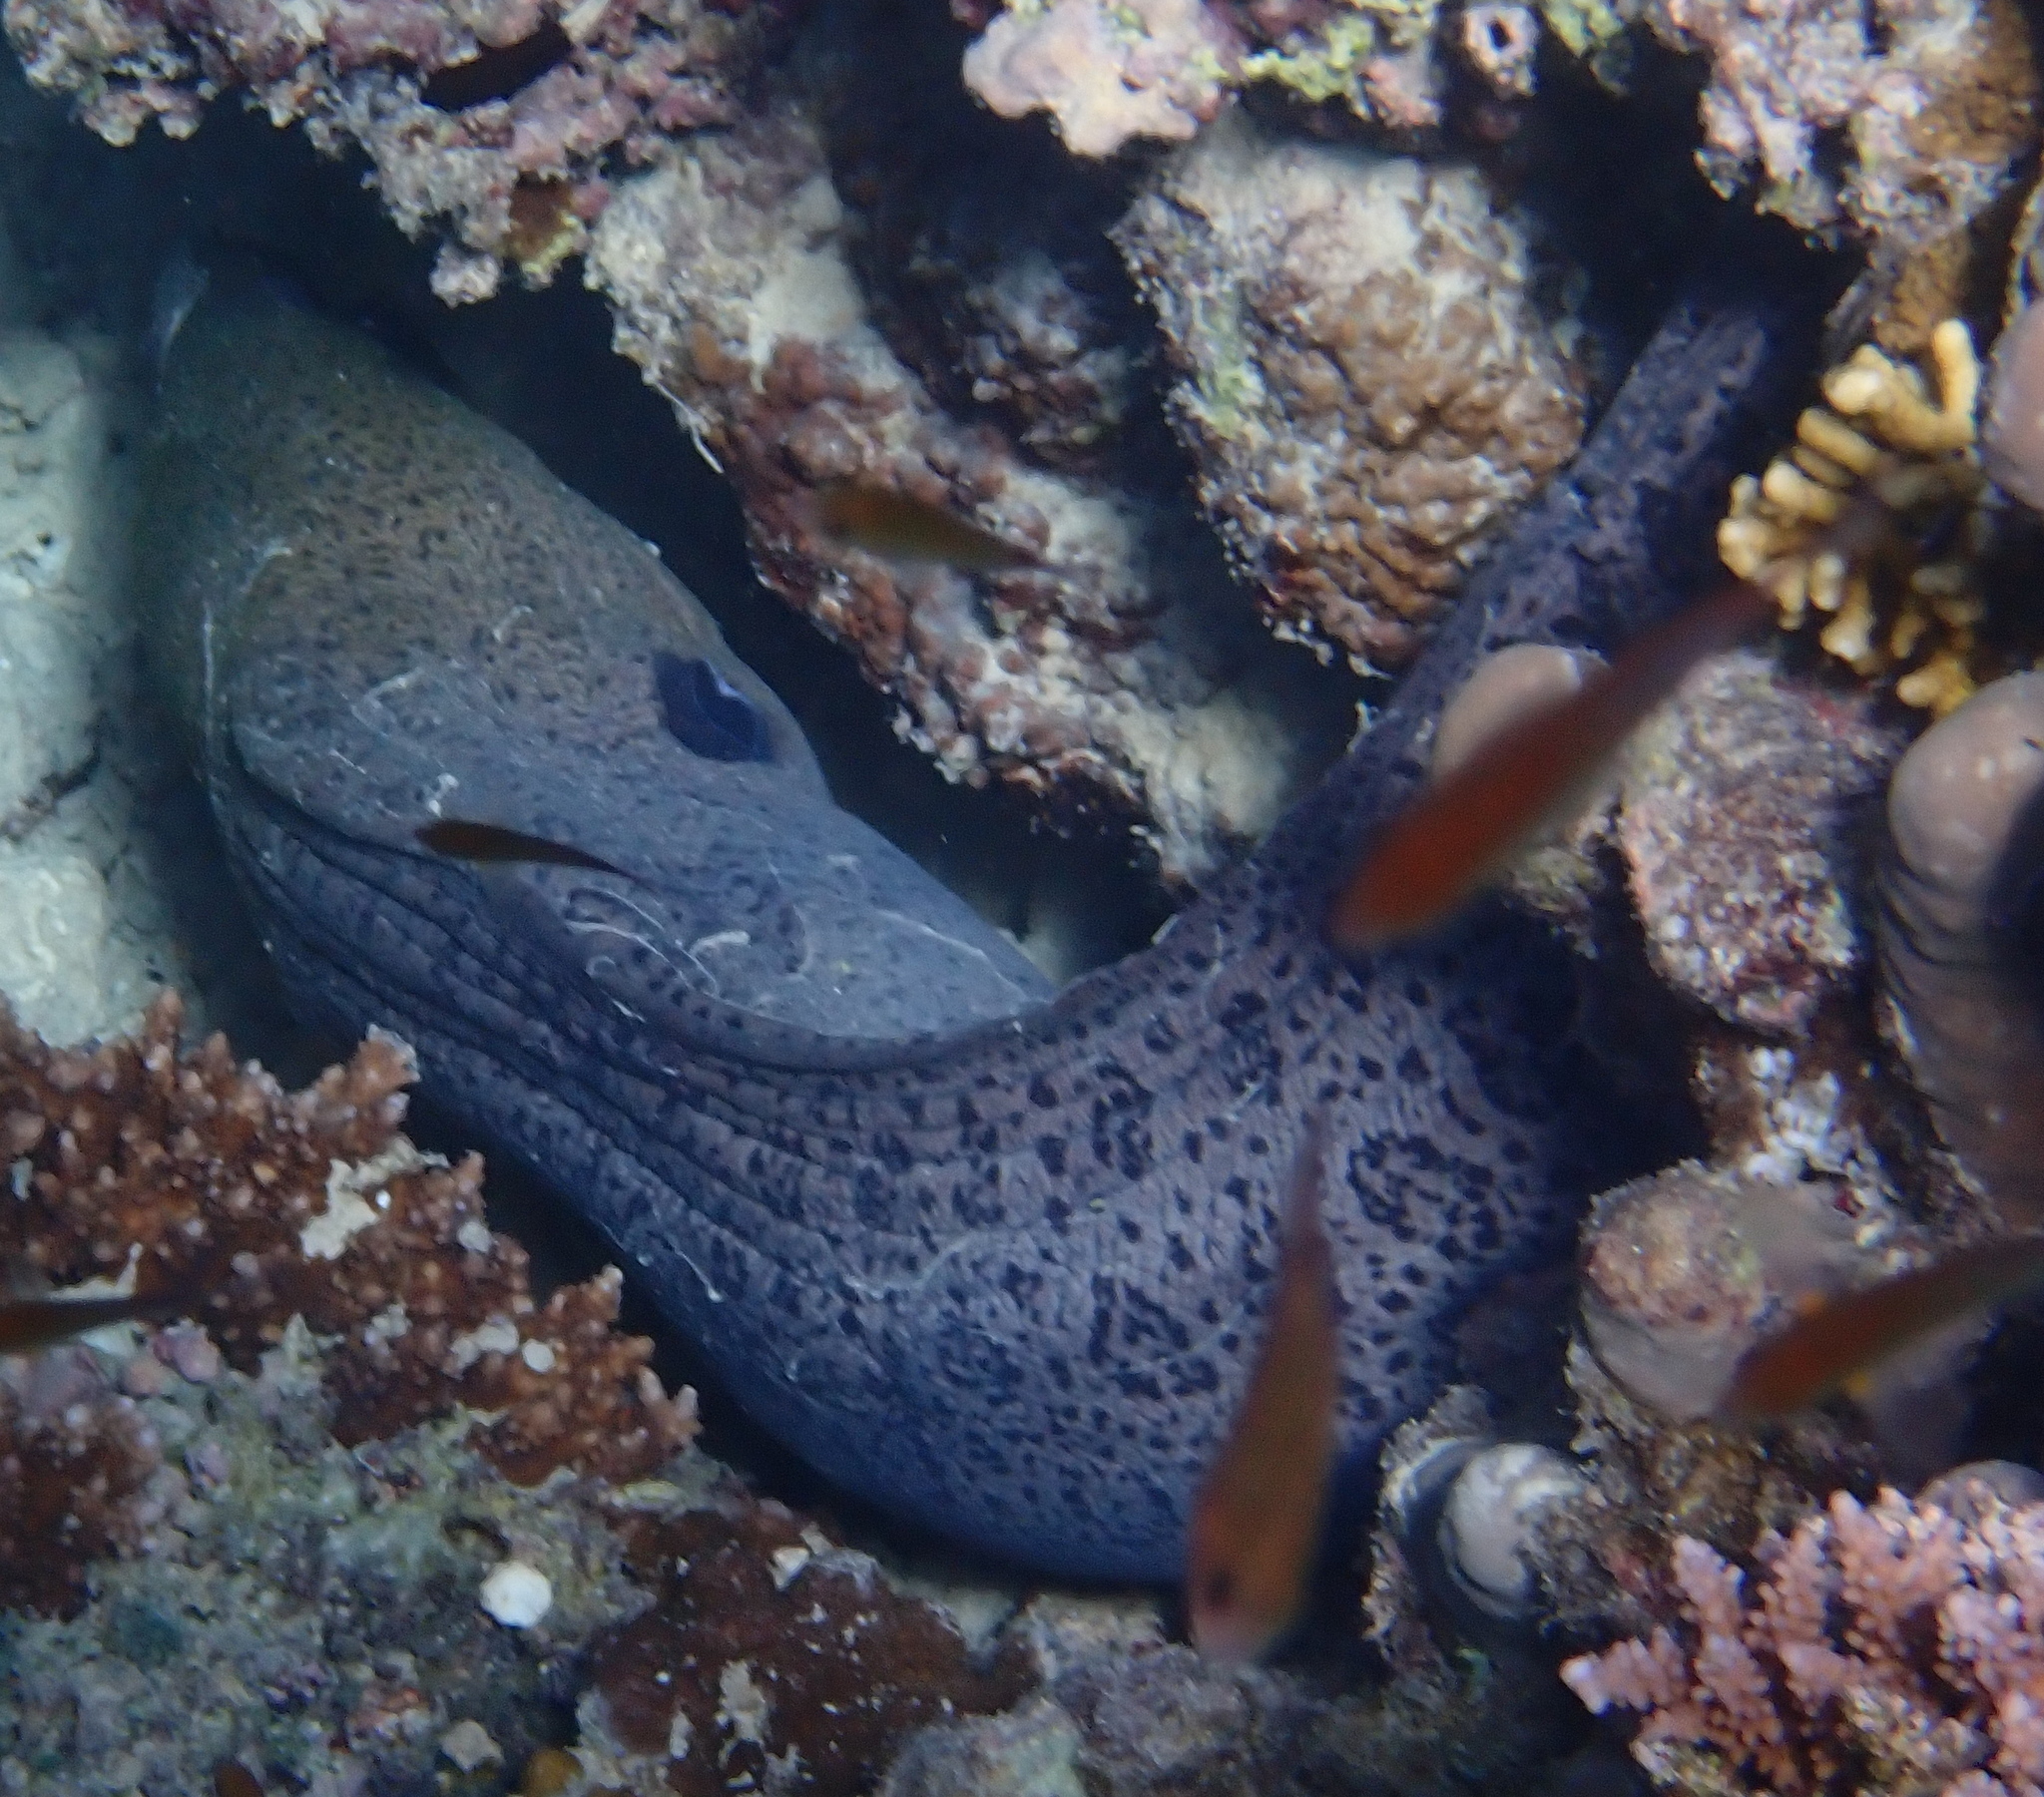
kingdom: Animalia
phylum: Chordata
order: Anguilliformes
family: Muraenidae
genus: Gymnothorax
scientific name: Gymnothorax javanicus
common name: Giant moray
